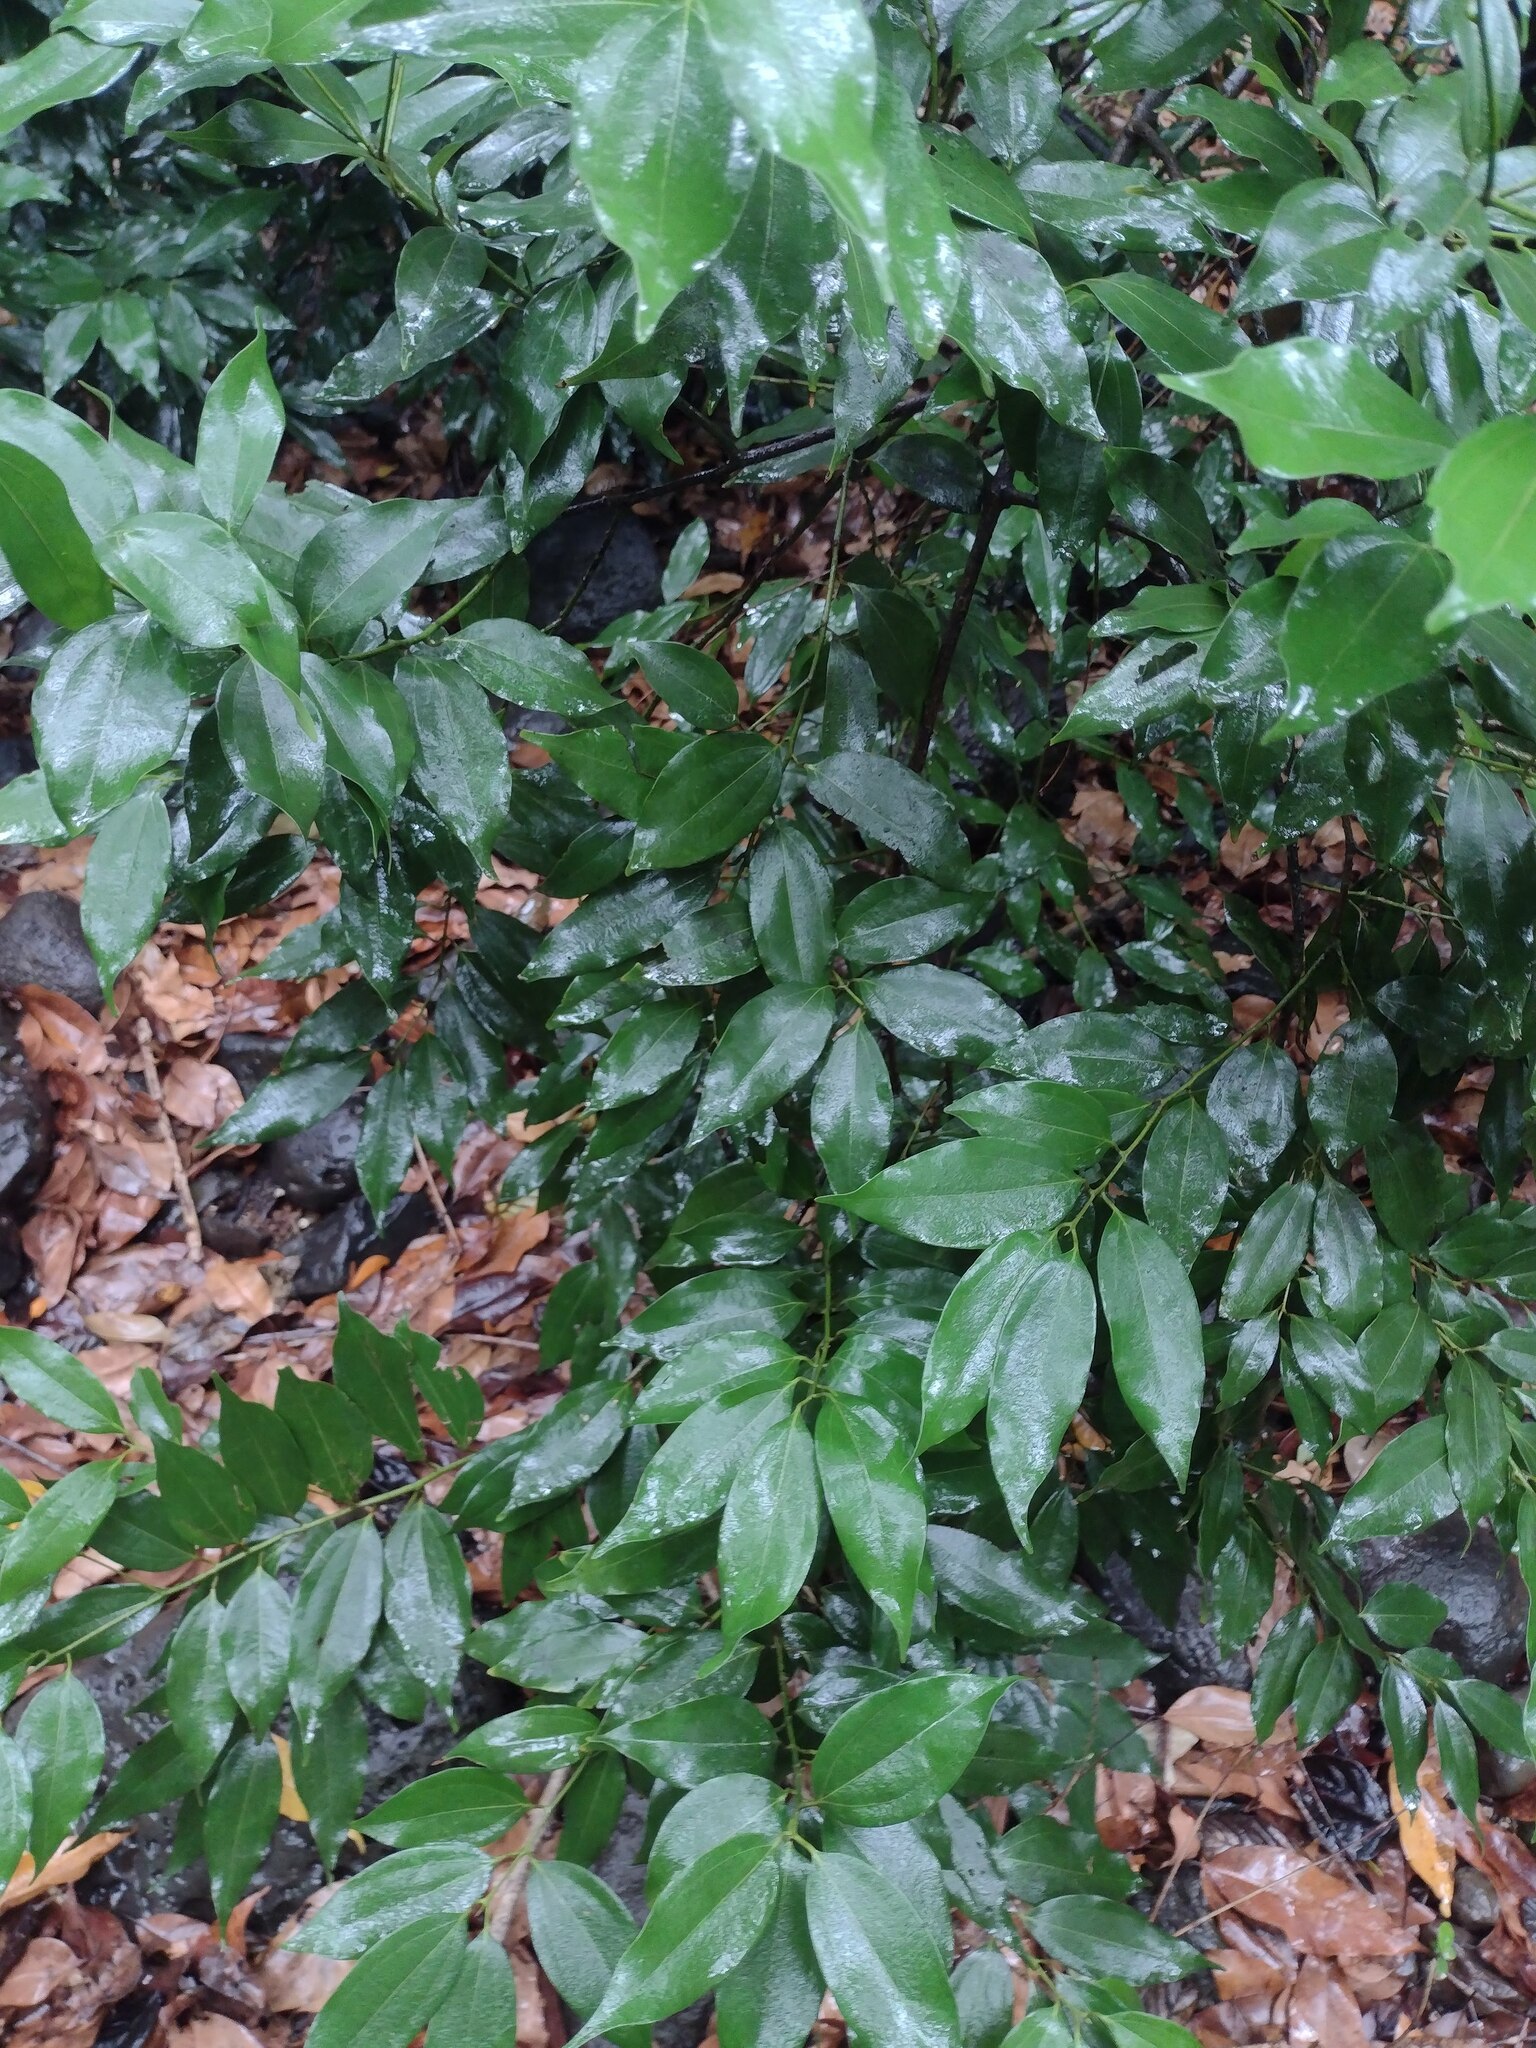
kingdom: Plantae
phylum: Tracheophyta
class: Magnoliopsida
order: Laurales
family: Lauraceae
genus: Cinnamomum
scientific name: Cinnamomum burmanni
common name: Padang cassia
